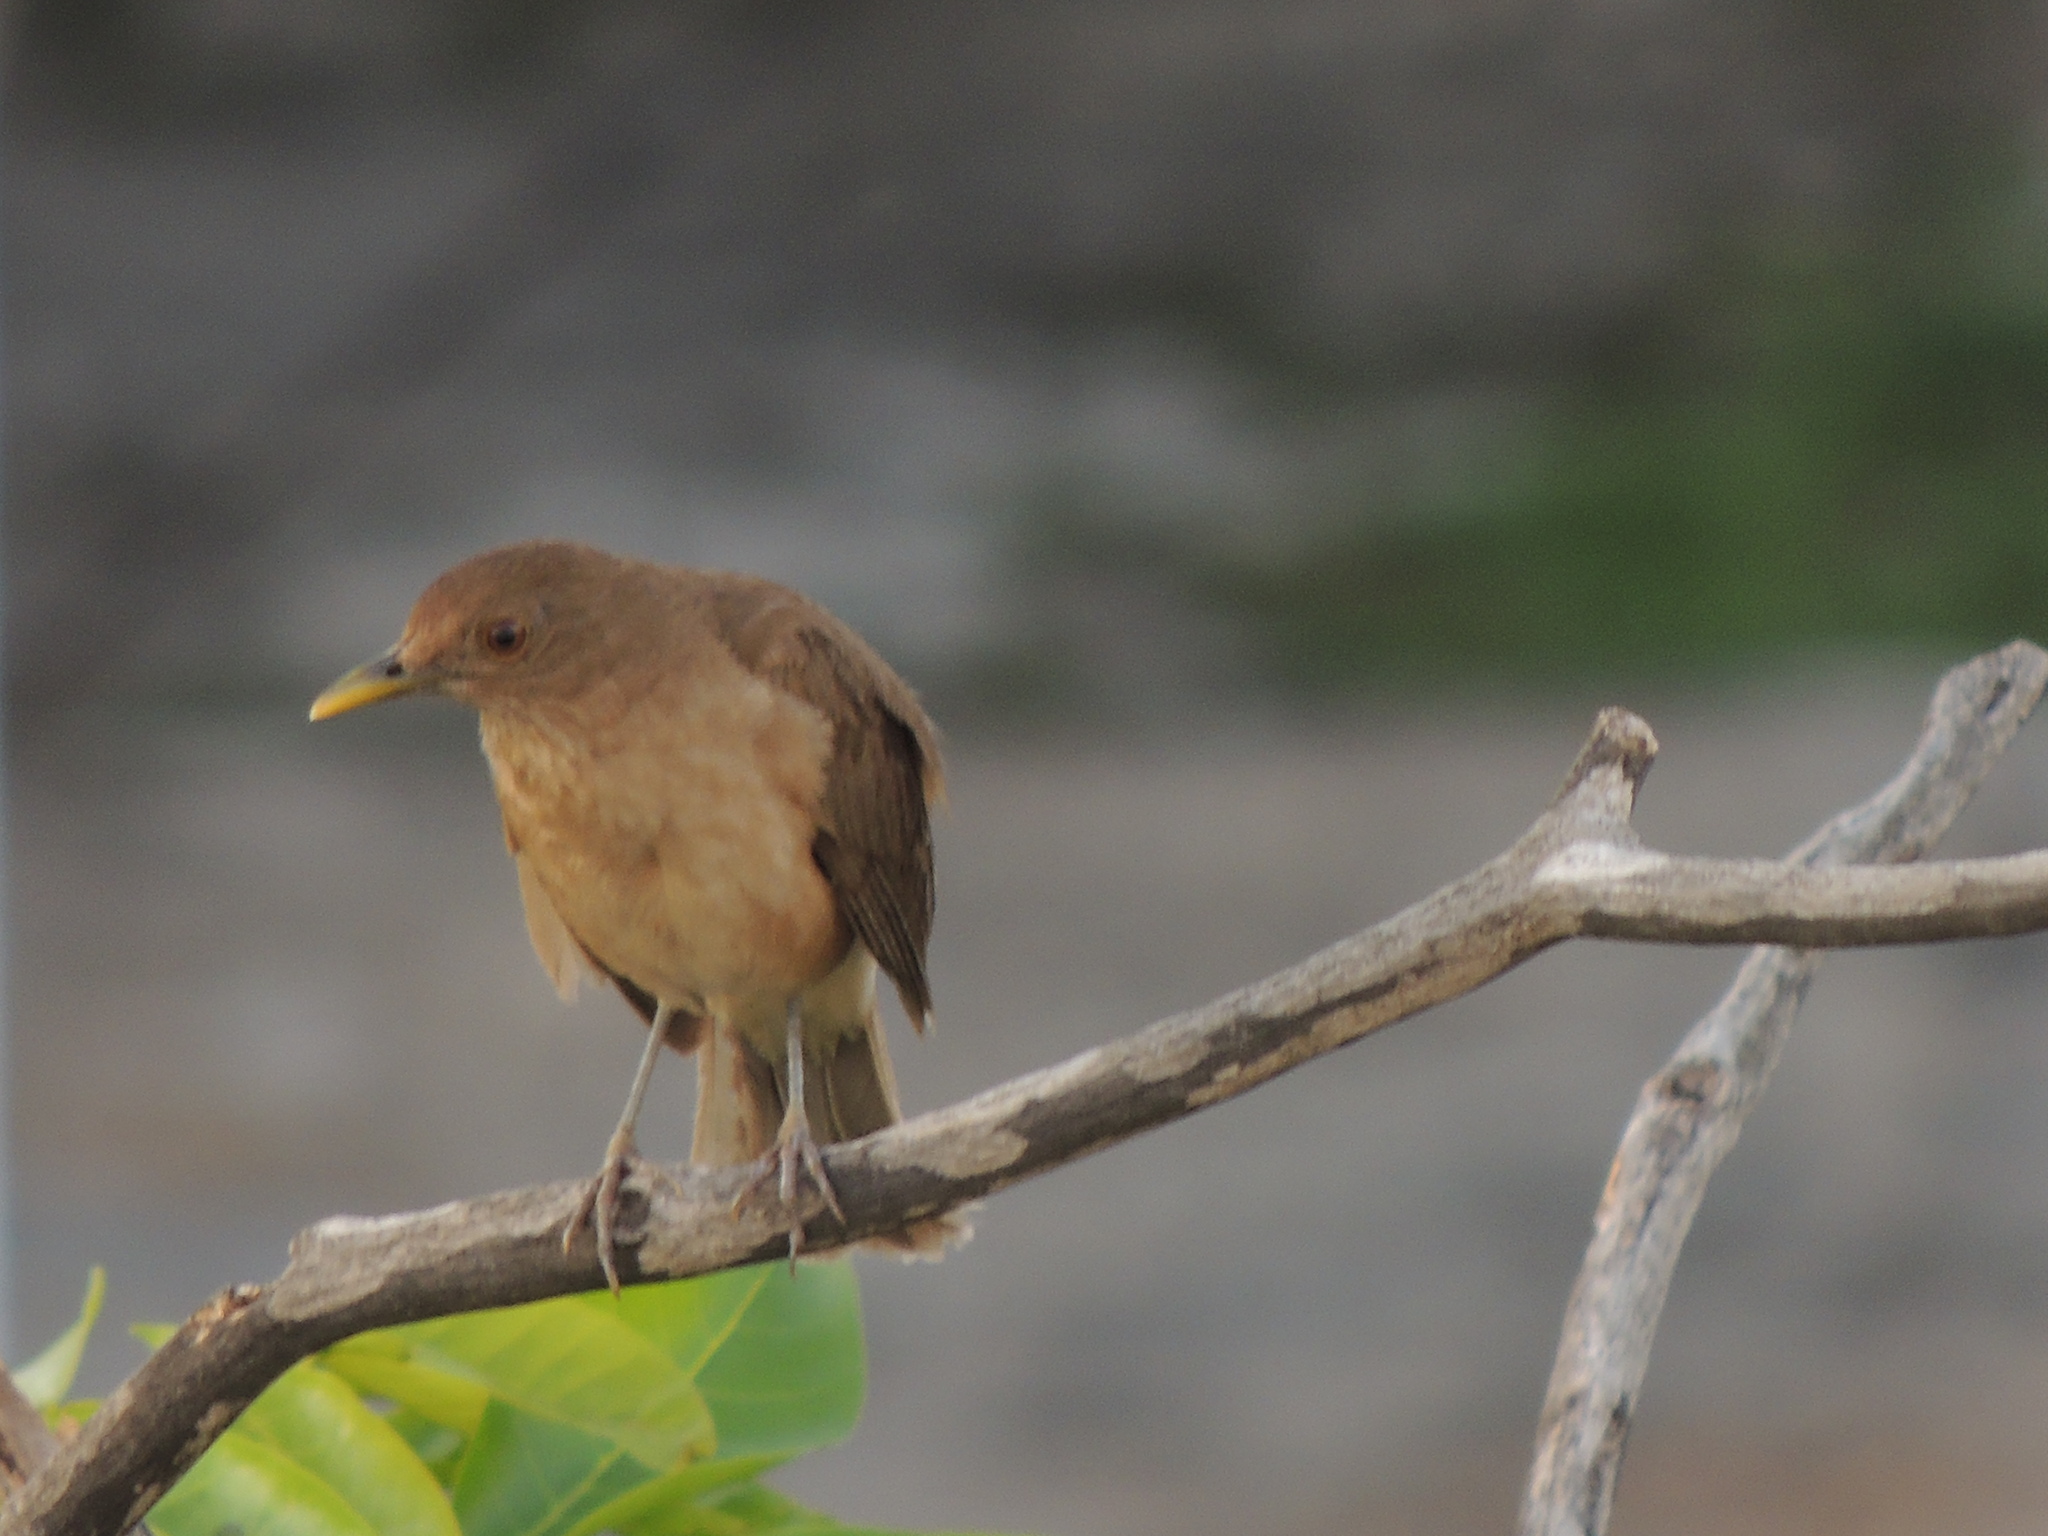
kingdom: Animalia
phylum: Chordata
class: Aves
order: Passeriformes
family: Turdidae
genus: Turdus
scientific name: Turdus grayi
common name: Clay-colored thrush
